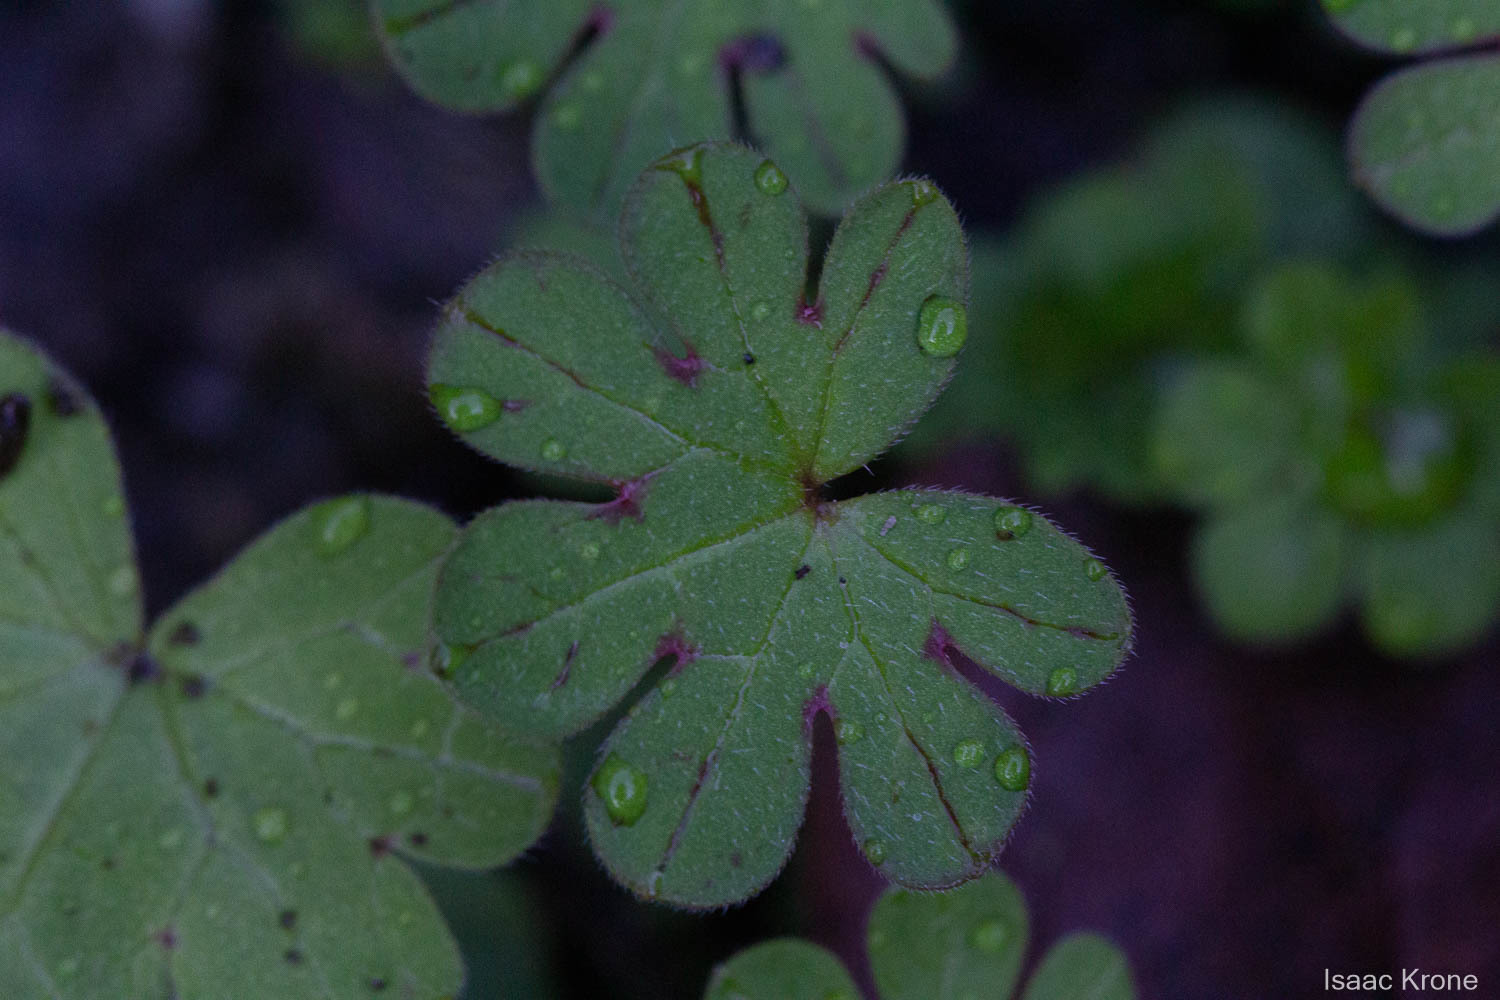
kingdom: Plantae
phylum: Tracheophyta
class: Magnoliopsida
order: Geraniales
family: Geraniaceae
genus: Geranium
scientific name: Geranium
